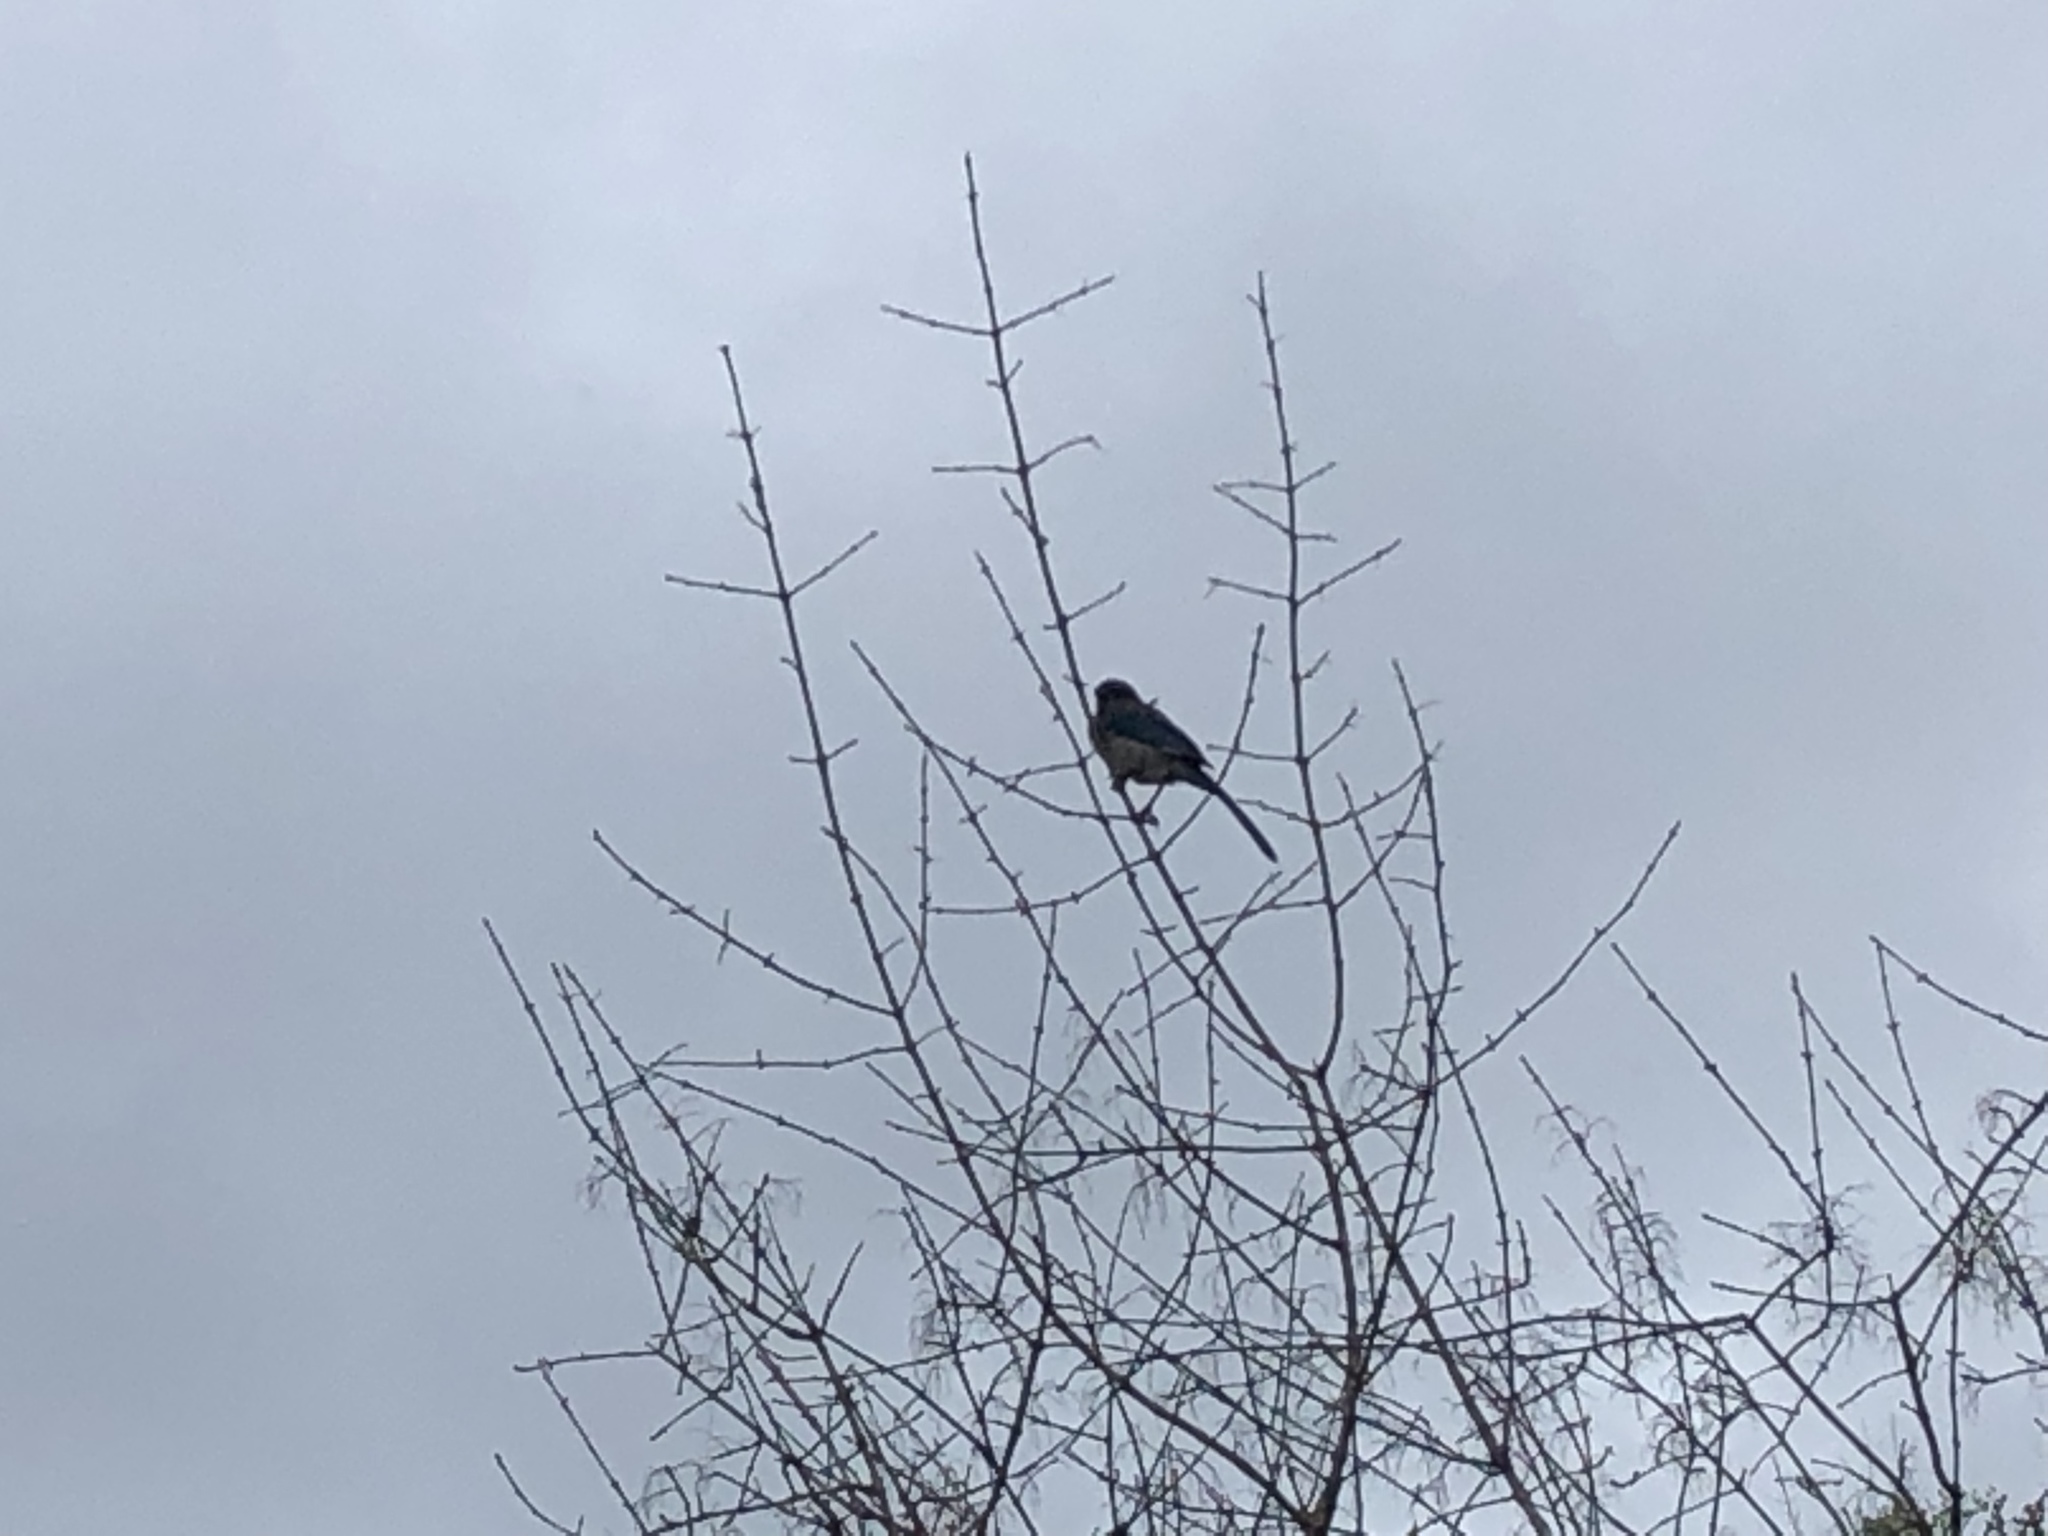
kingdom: Animalia
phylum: Chordata
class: Aves
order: Passeriformes
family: Corvidae
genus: Aphelocoma
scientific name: Aphelocoma californica
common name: California scrub-jay
